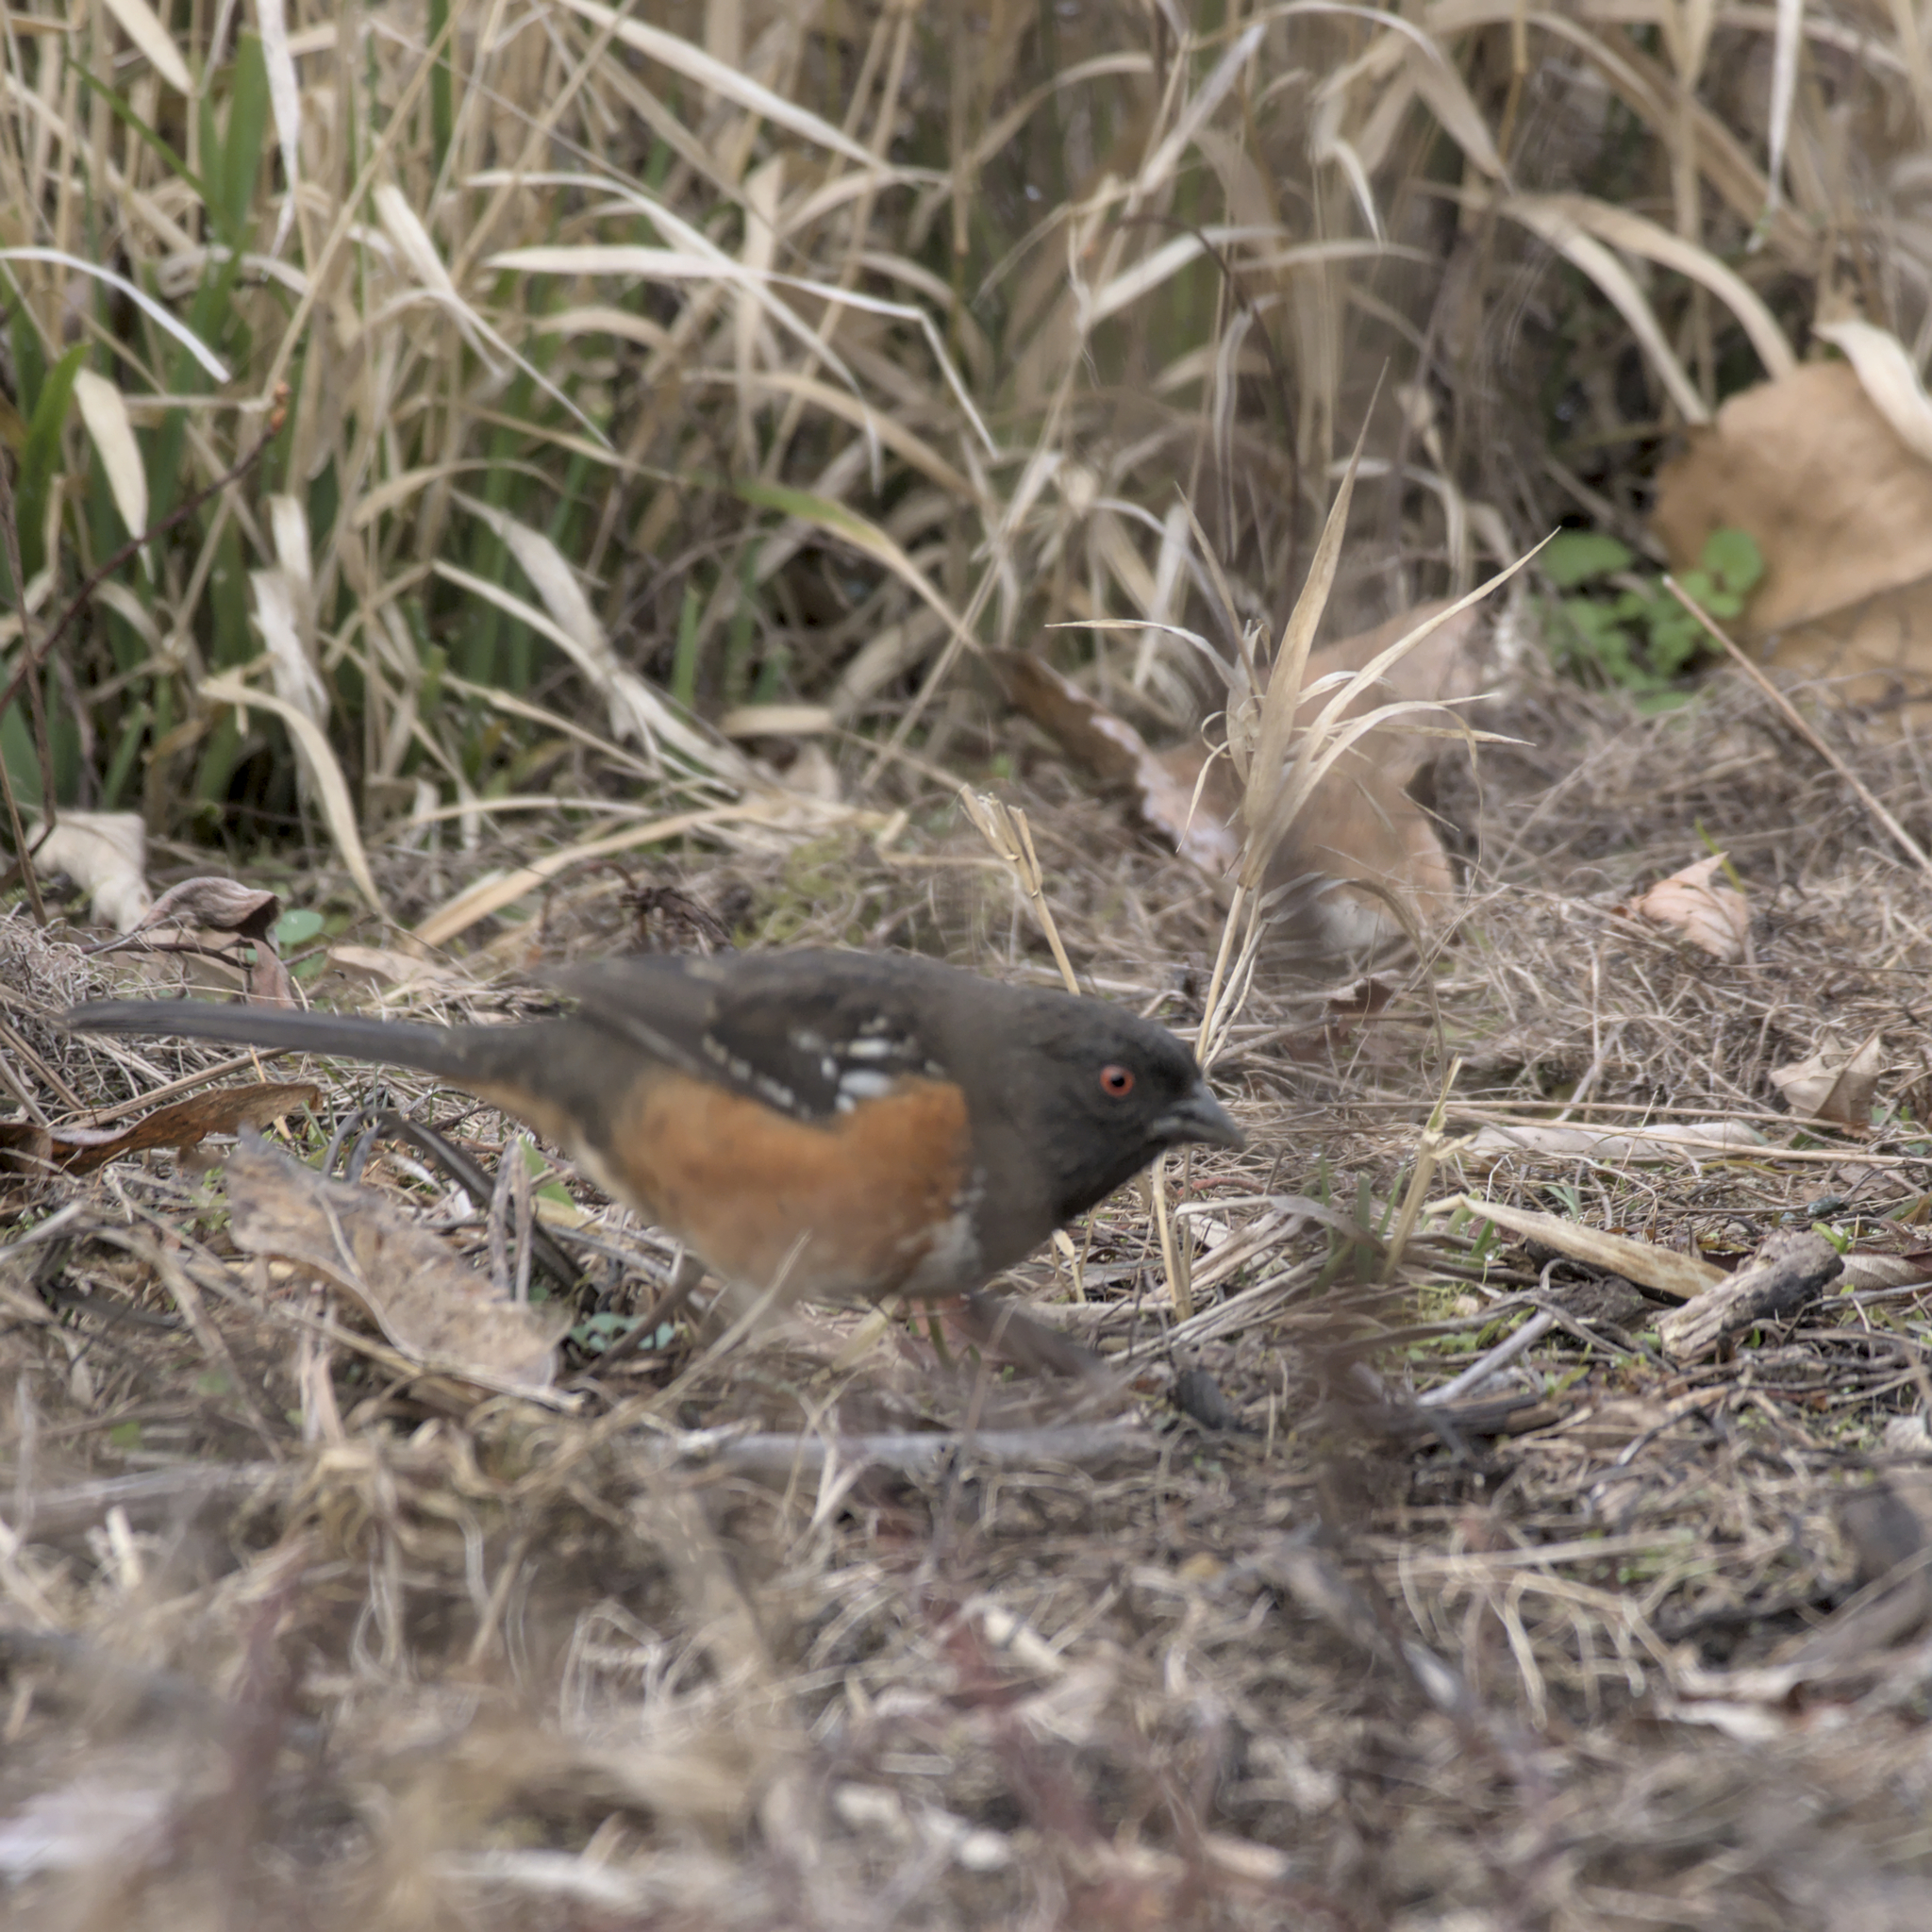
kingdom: Animalia
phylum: Chordata
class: Aves
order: Passeriformes
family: Passerellidae
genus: Pipilo
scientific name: Pipilo maculatus
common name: Spotted towhee
